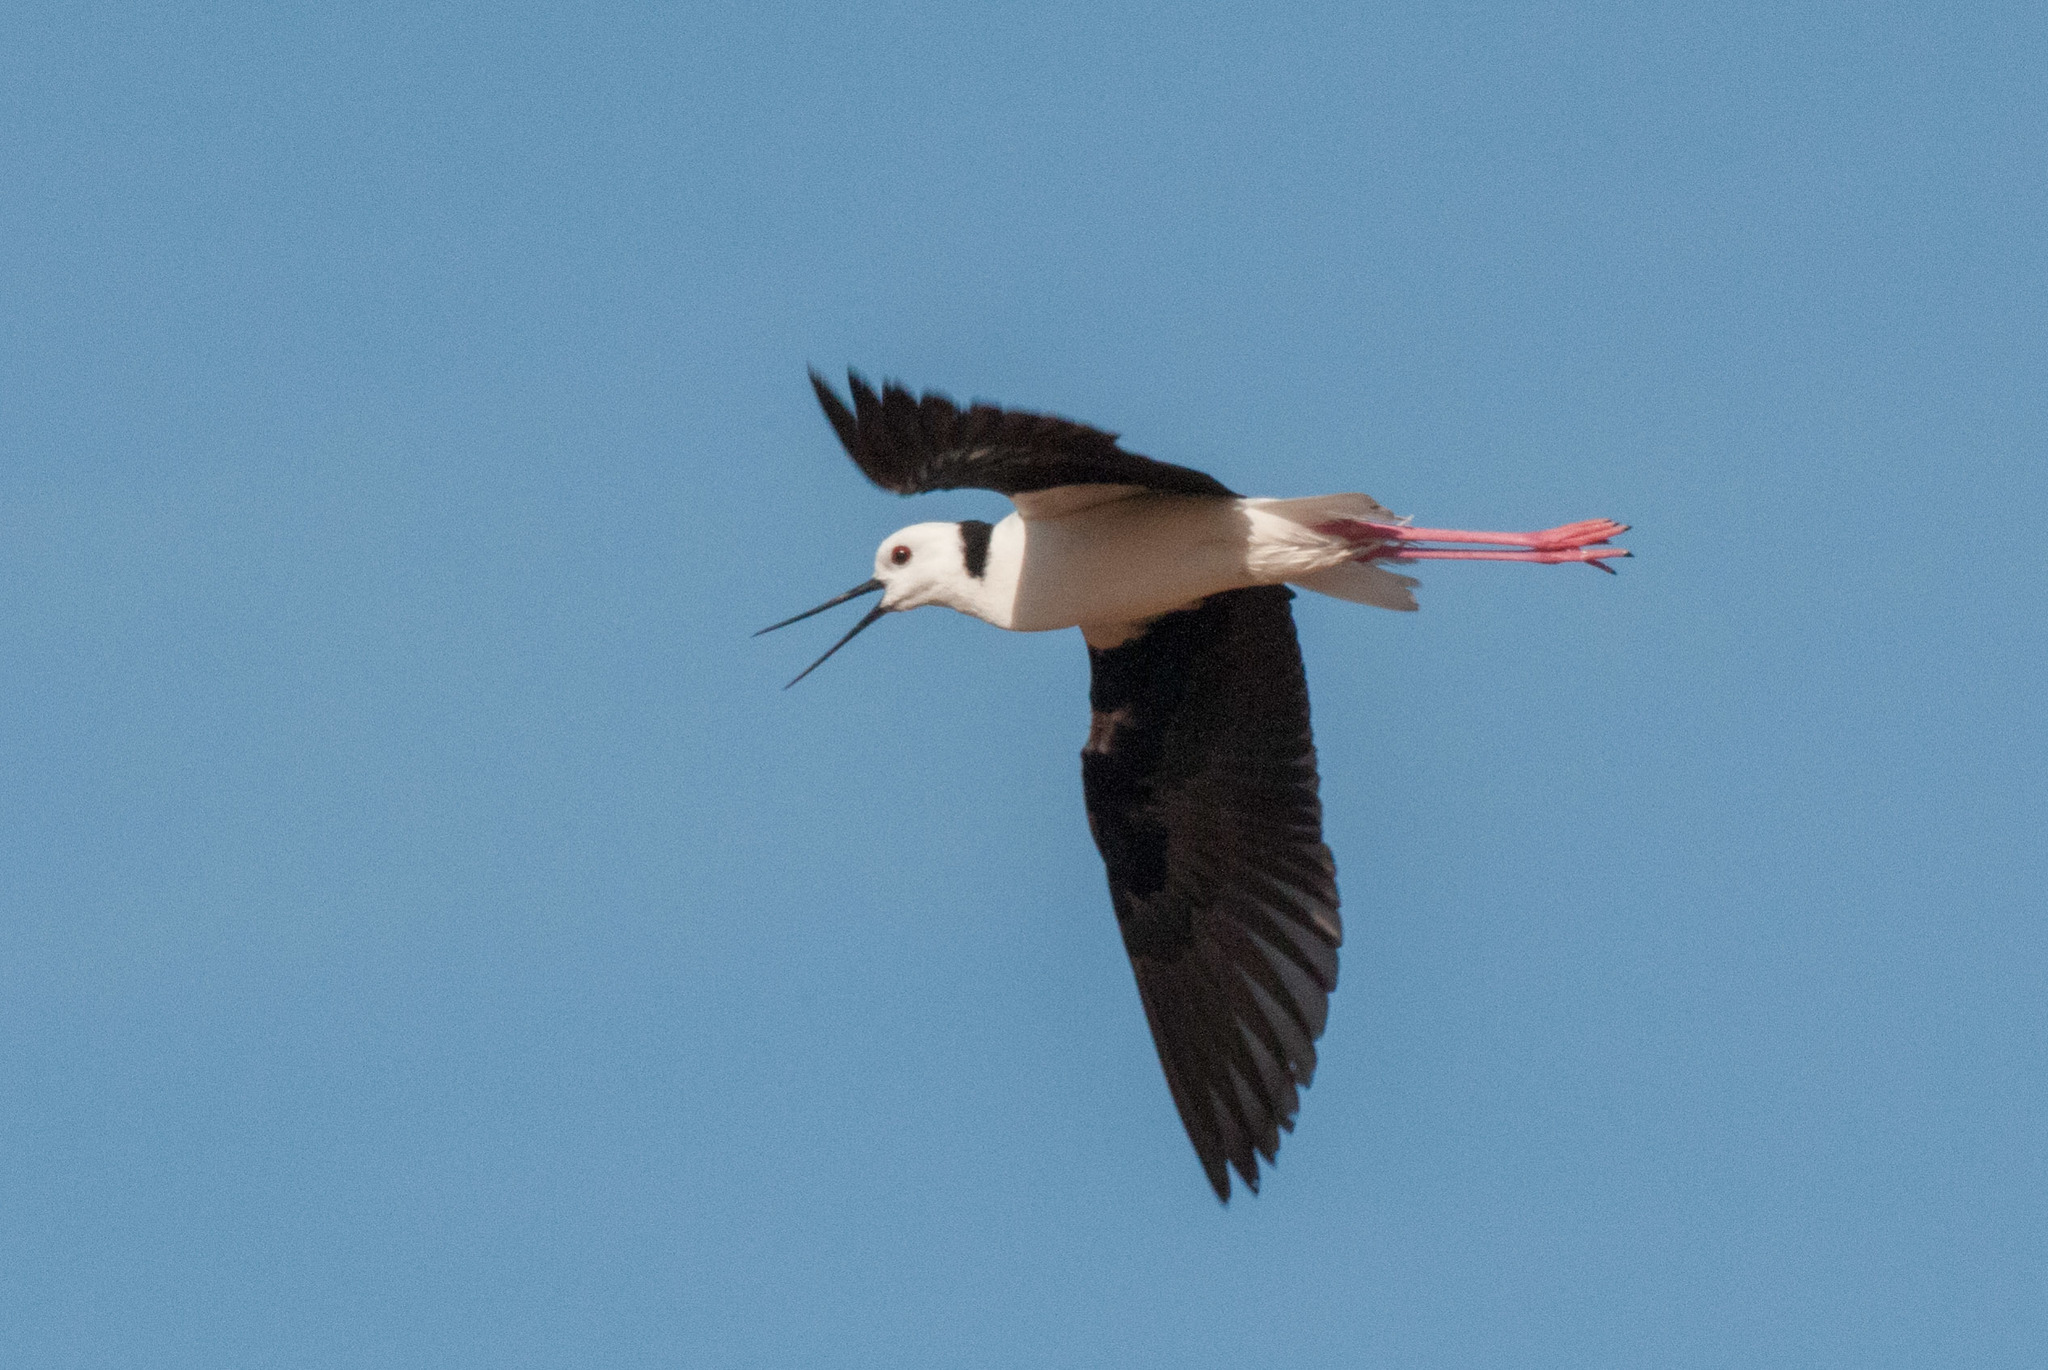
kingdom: Animalia
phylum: Chordata
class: Aves
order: Charadriiformes
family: Recurvirostridae
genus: Himantopus
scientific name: Himantopus leucocephalus
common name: White-headed stilt
